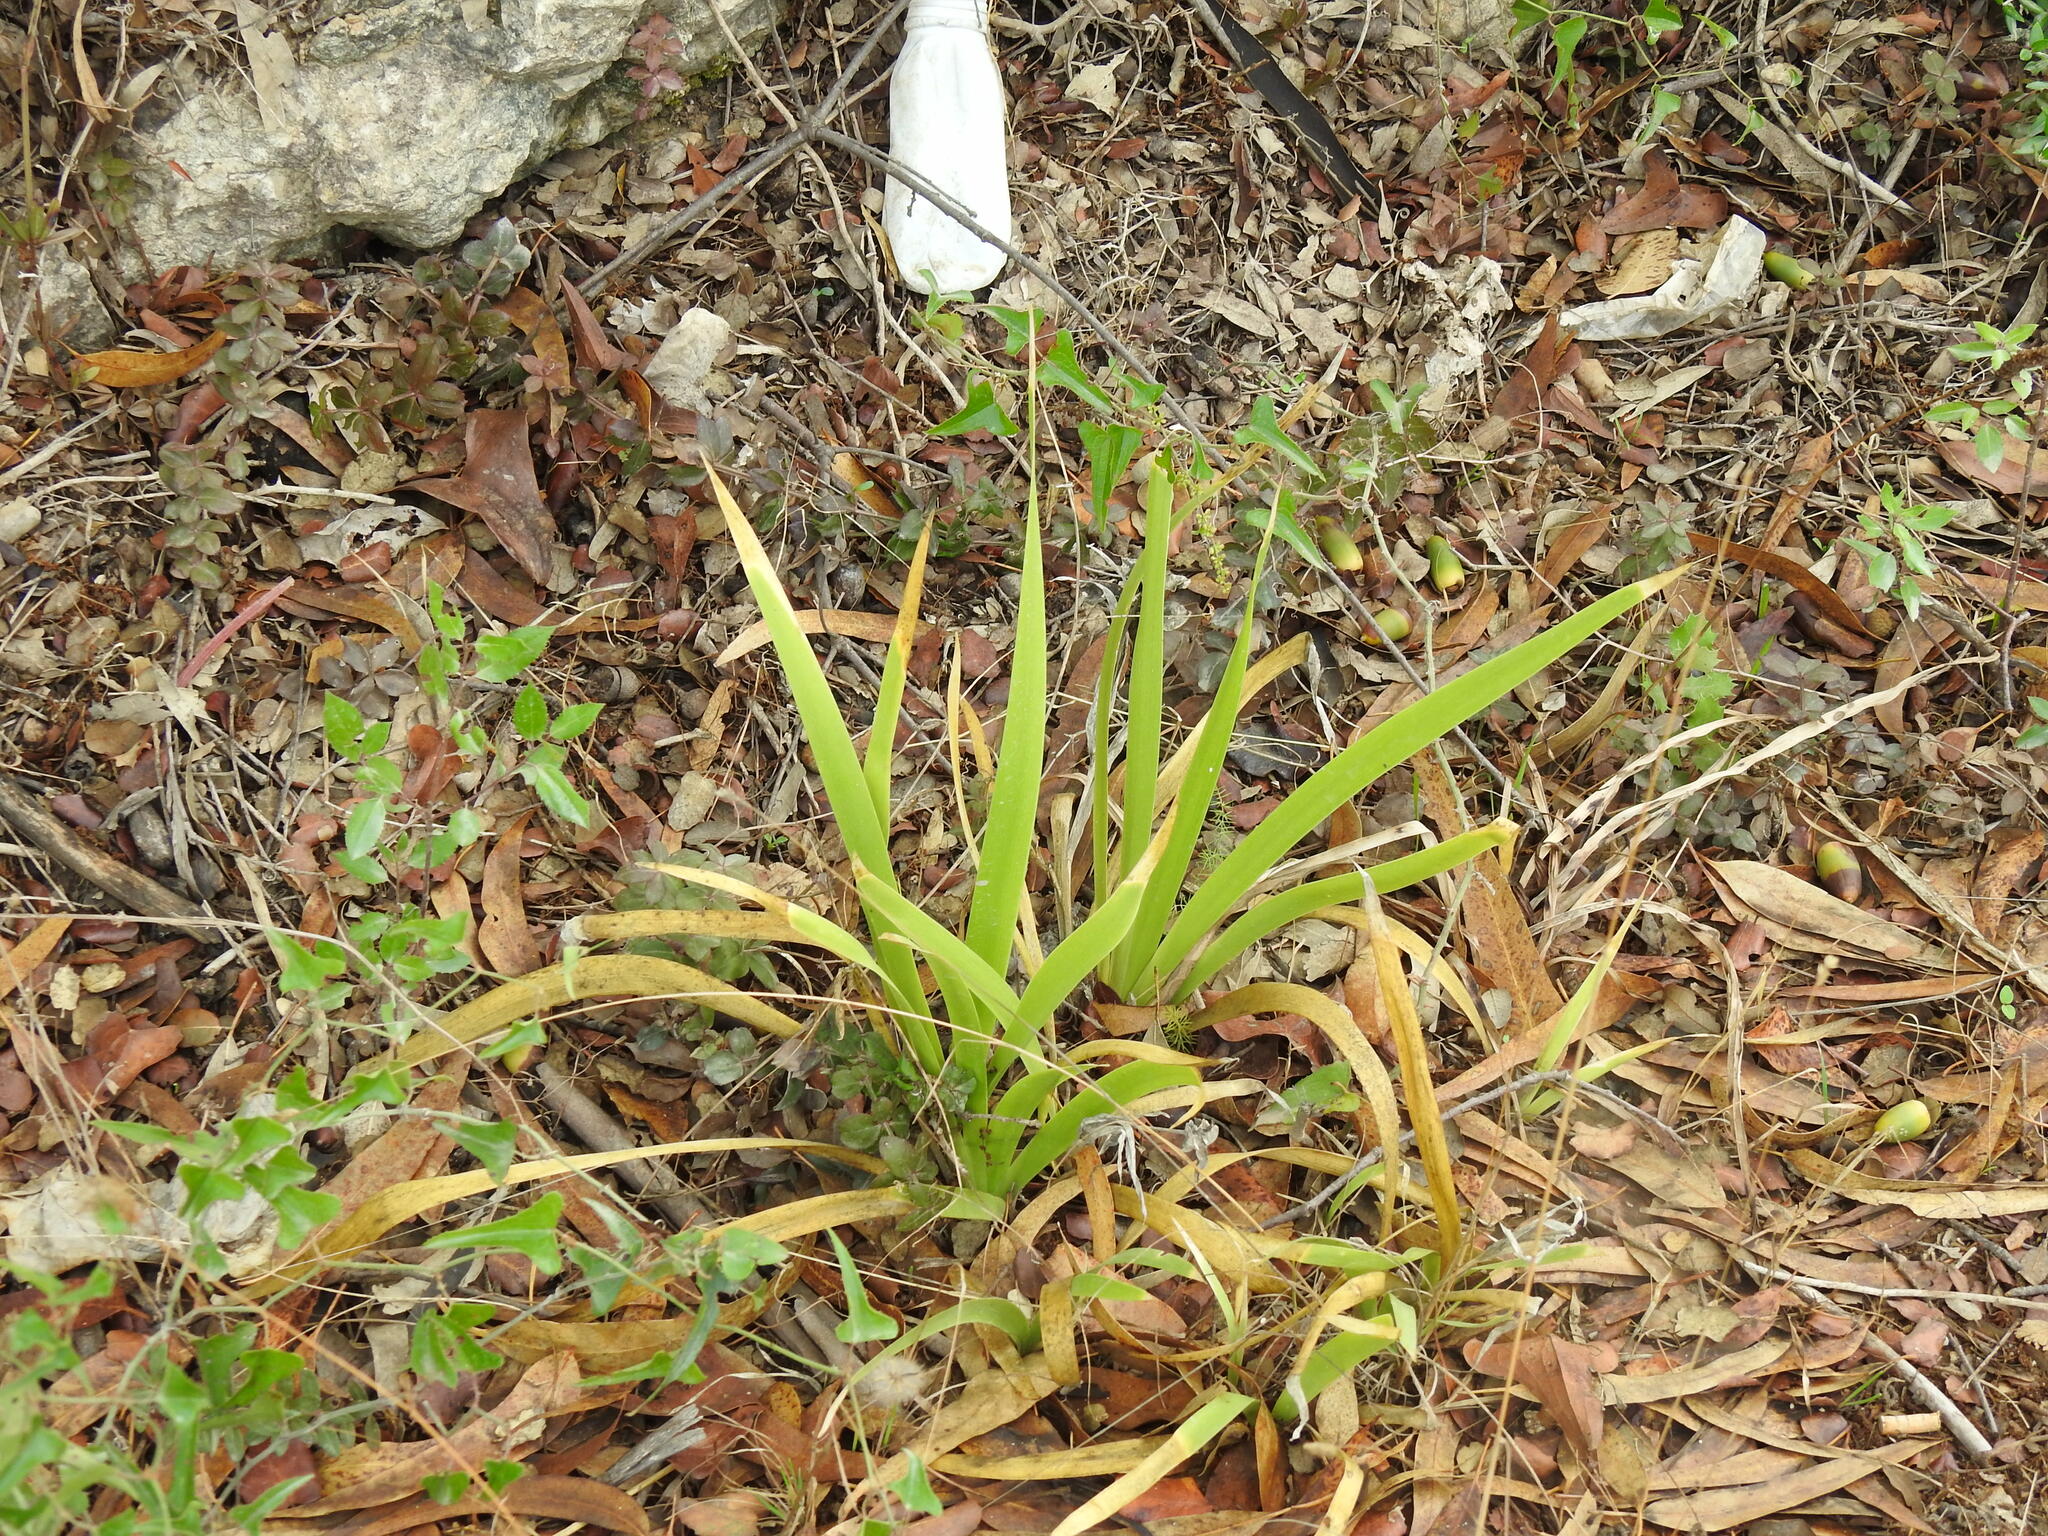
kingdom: Plantae
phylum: Tracheophyta
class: Liliopsida
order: Asparagales
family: Iridaceae
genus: Iris
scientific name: Iris foetidissima
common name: Stinking iris
